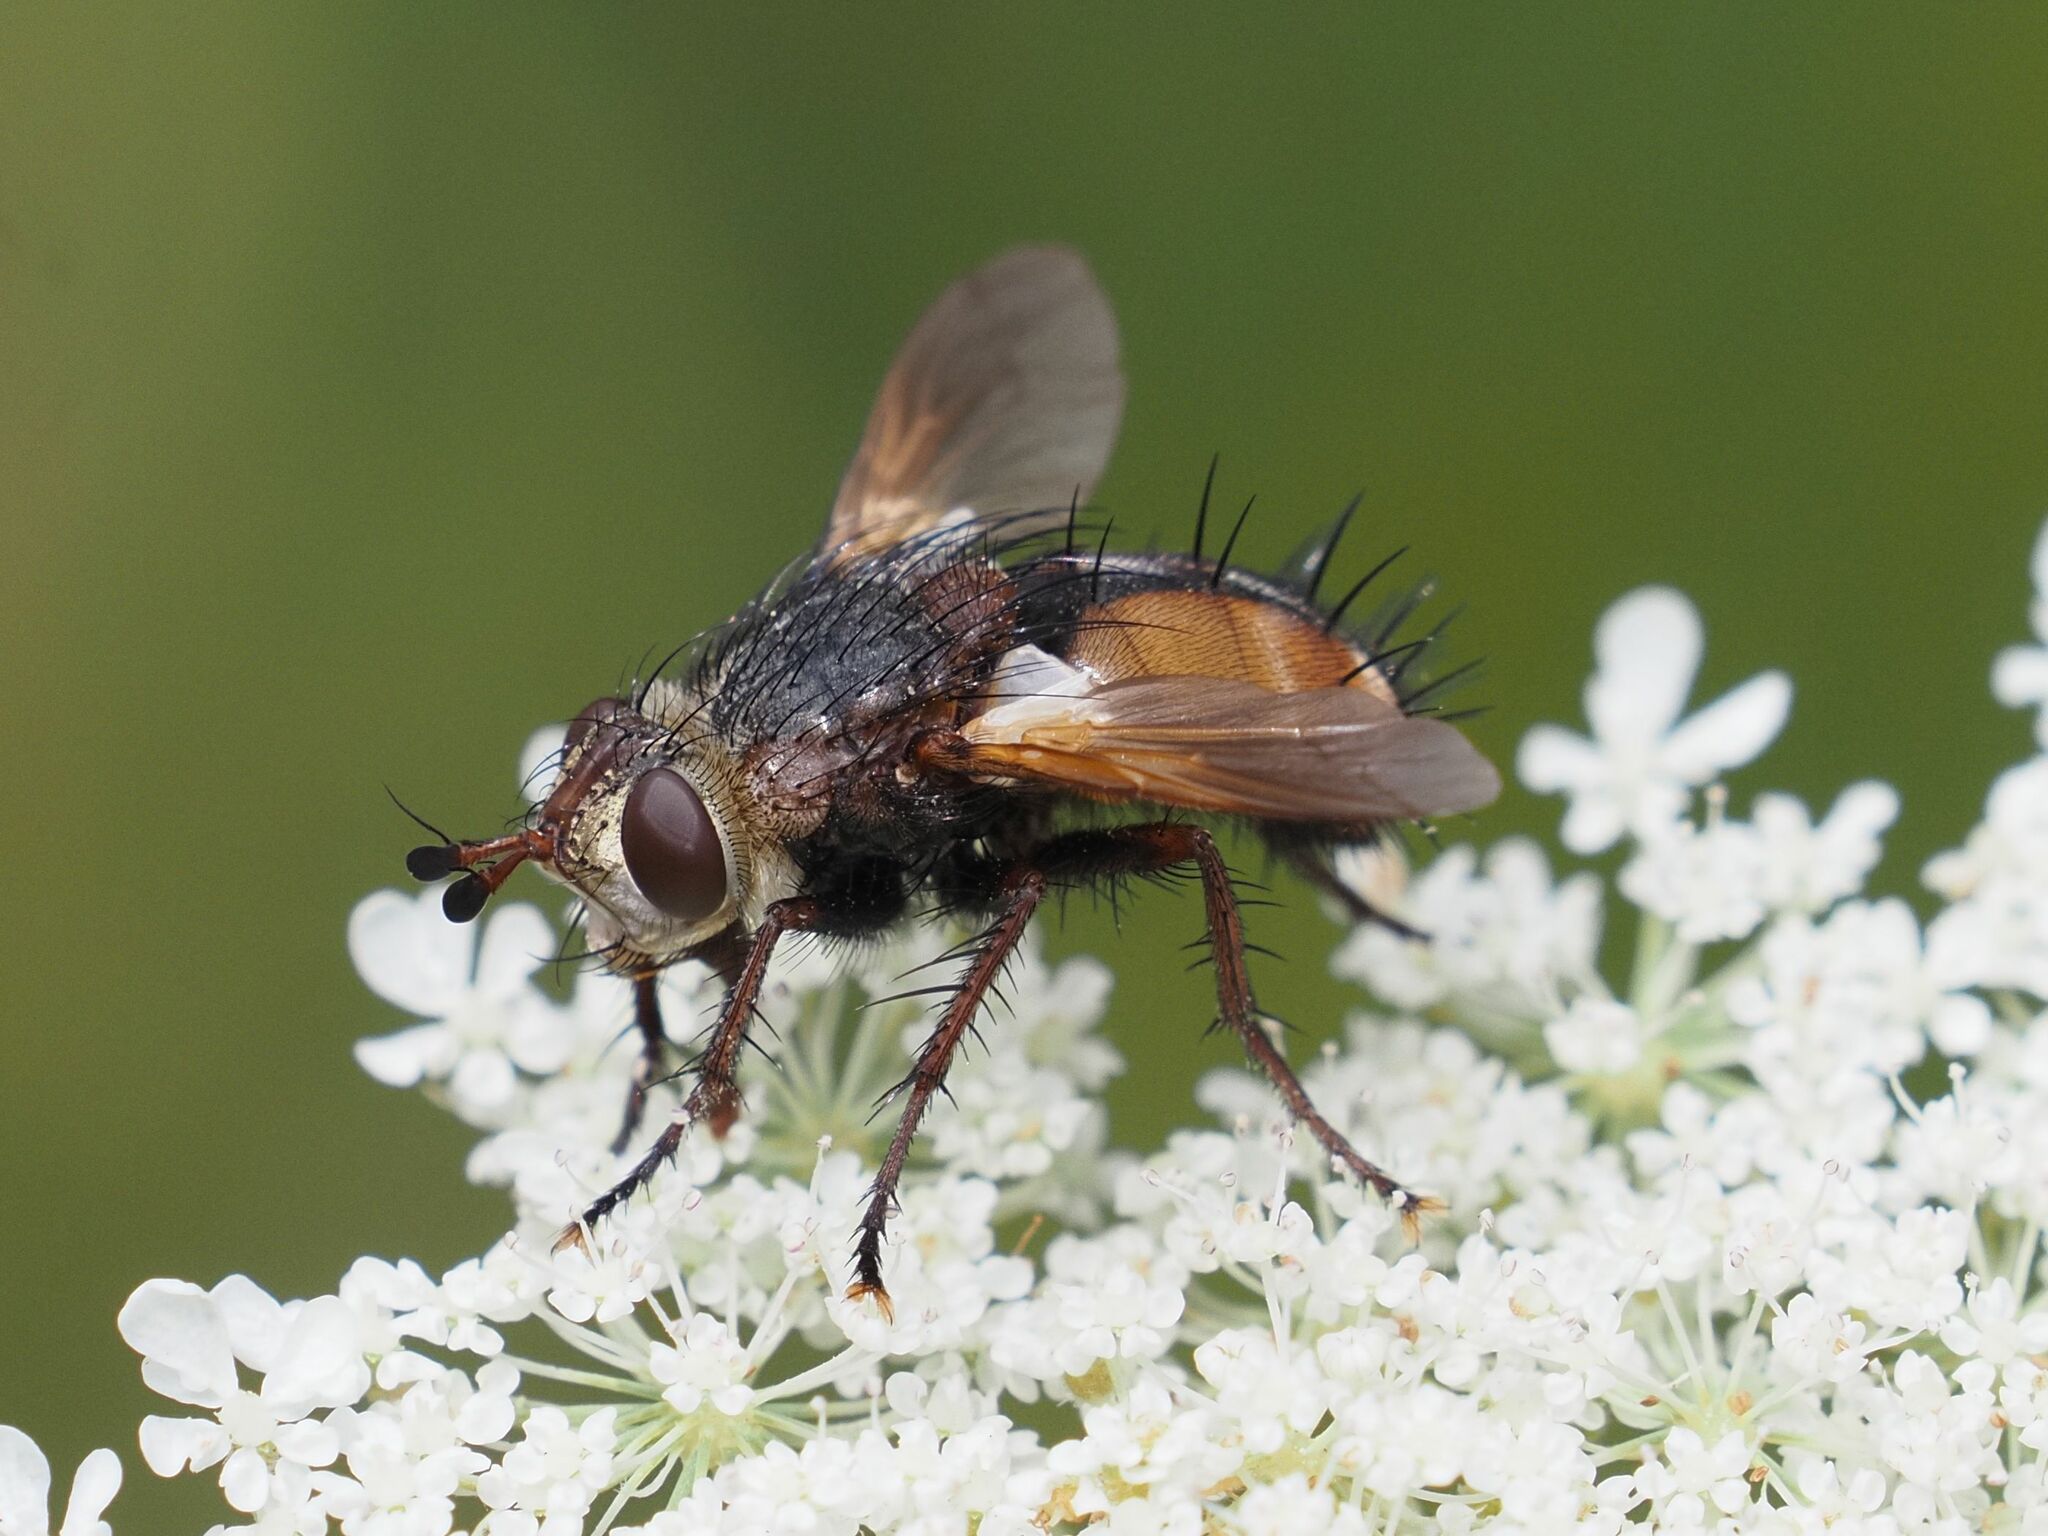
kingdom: Animalia
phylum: Arthropoda
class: Insecta
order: Diptera
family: Tachinidae
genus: Tachina
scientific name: Tachina fera
